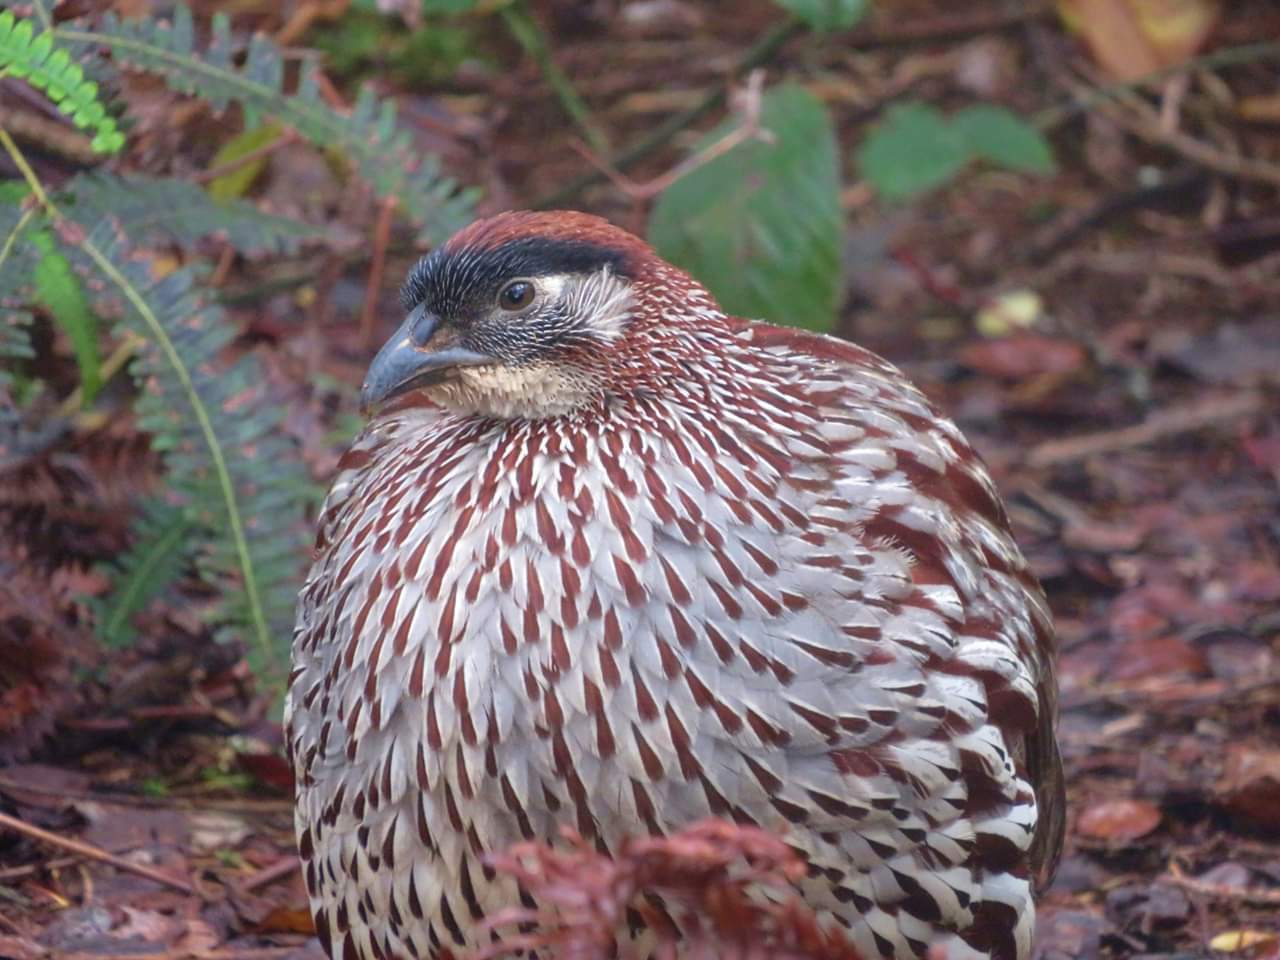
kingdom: Animalia
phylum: Chordata
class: Aves
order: Galliformes
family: Phasianidae
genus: Pternistis
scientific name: Pternistis erckelii
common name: Erckel's francolin
